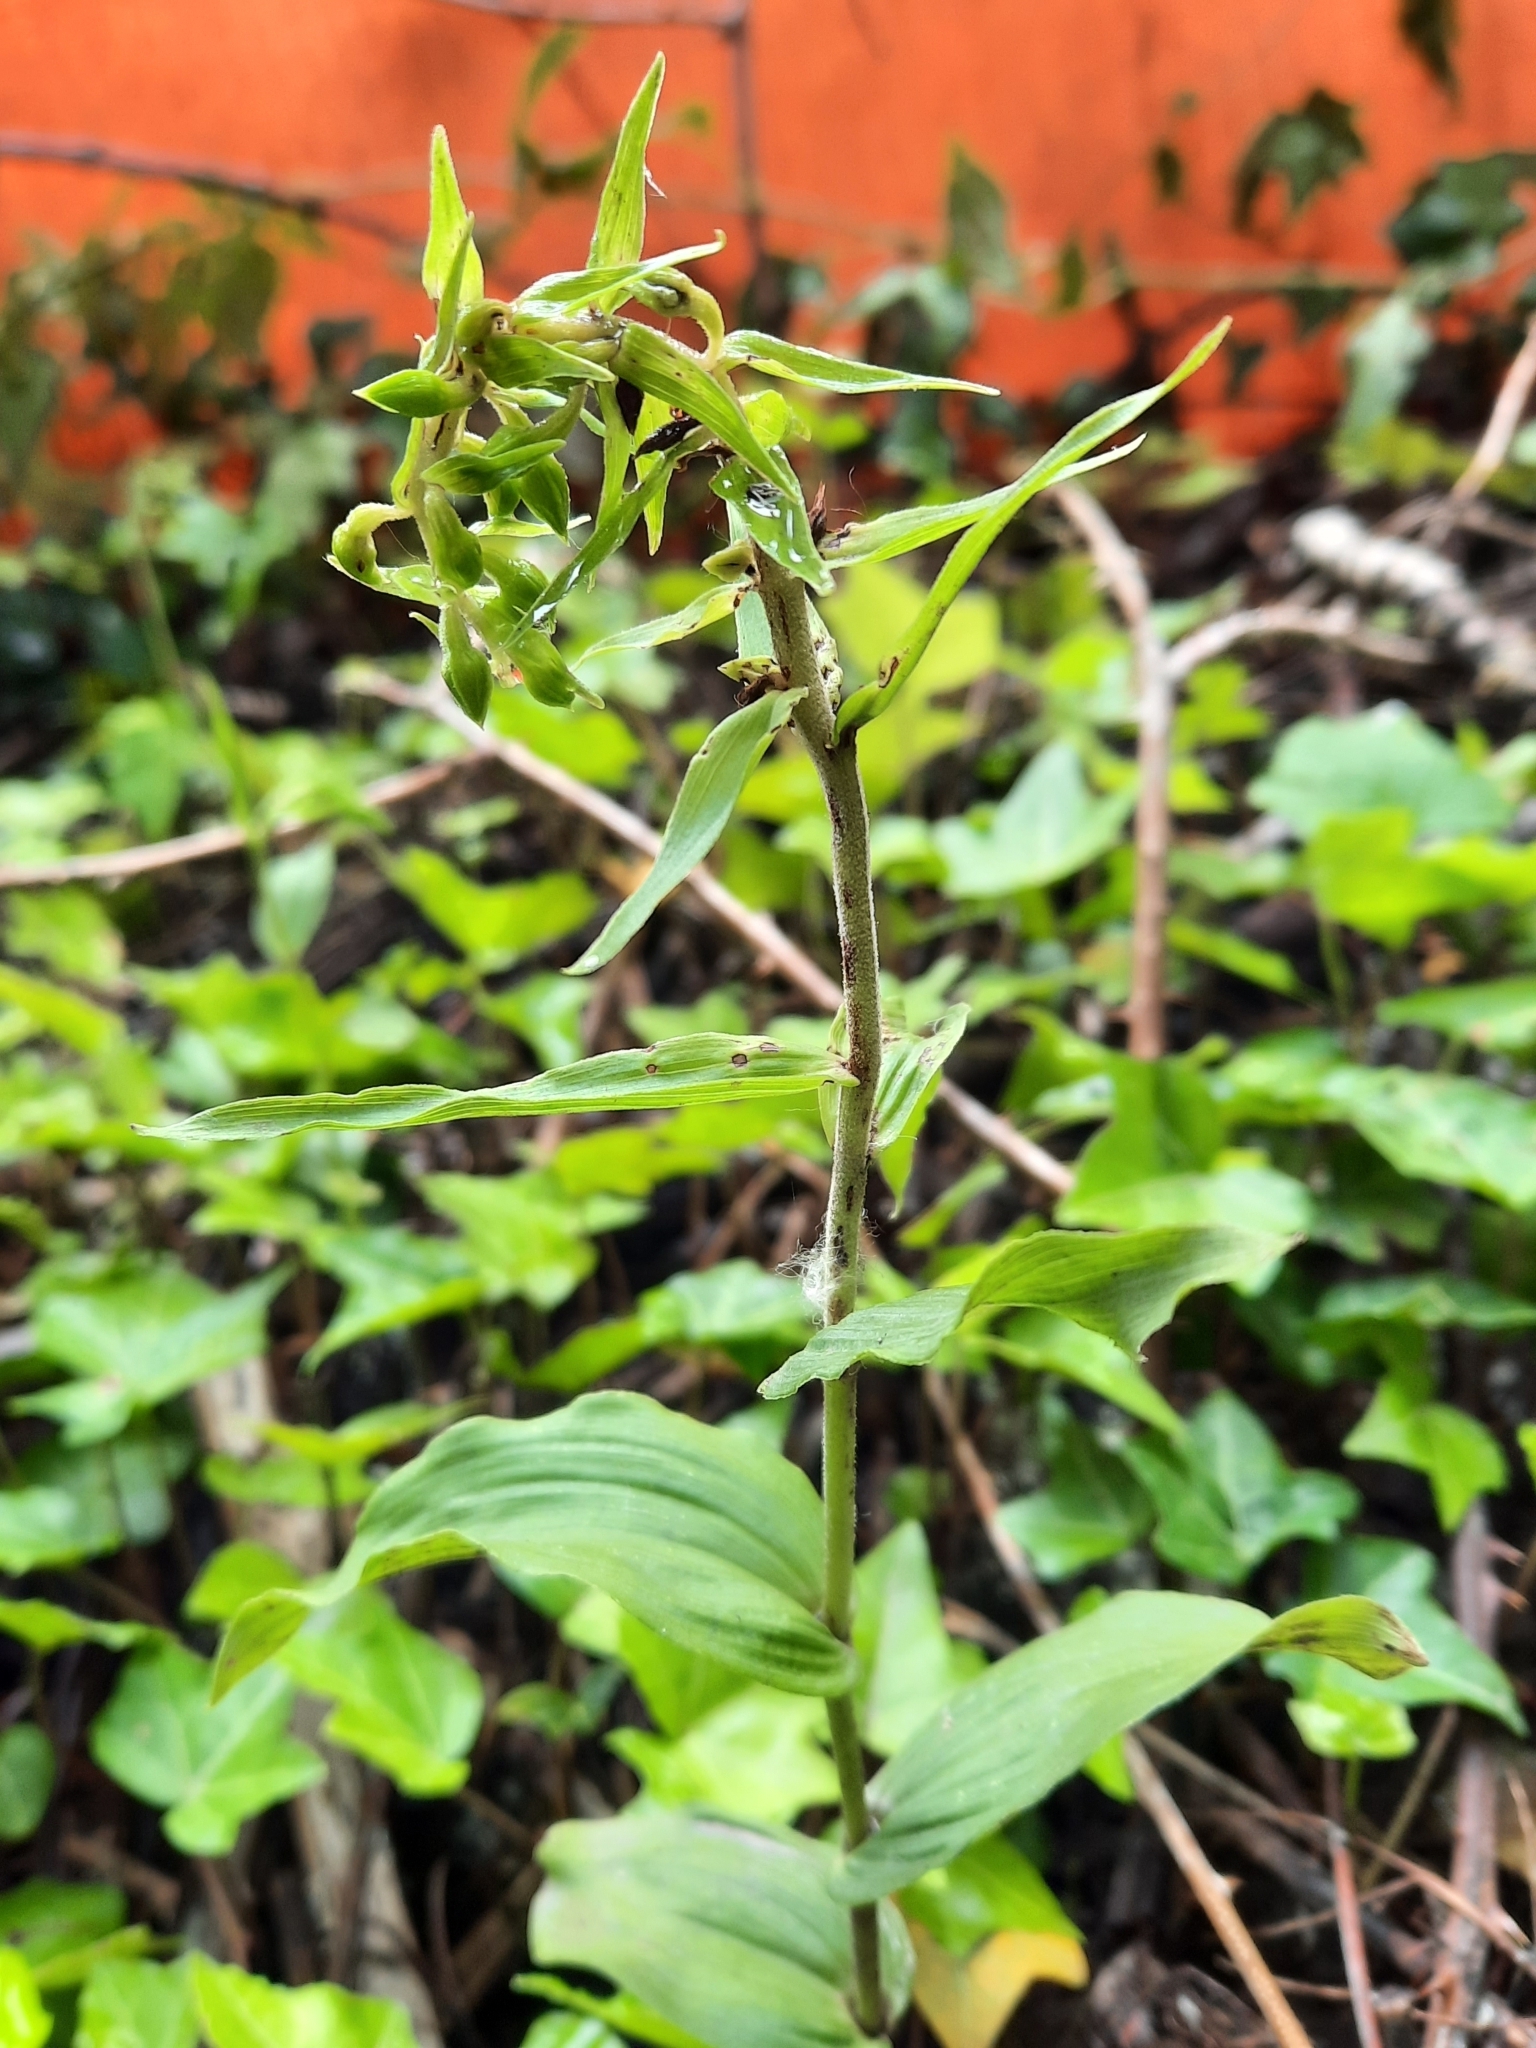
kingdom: Plantae
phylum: Tracheophyta
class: Liliopsida
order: Asparagales
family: Orchidaceae
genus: Epipactis
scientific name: Epipactis helleborine
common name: Broad-leaved helleborine
